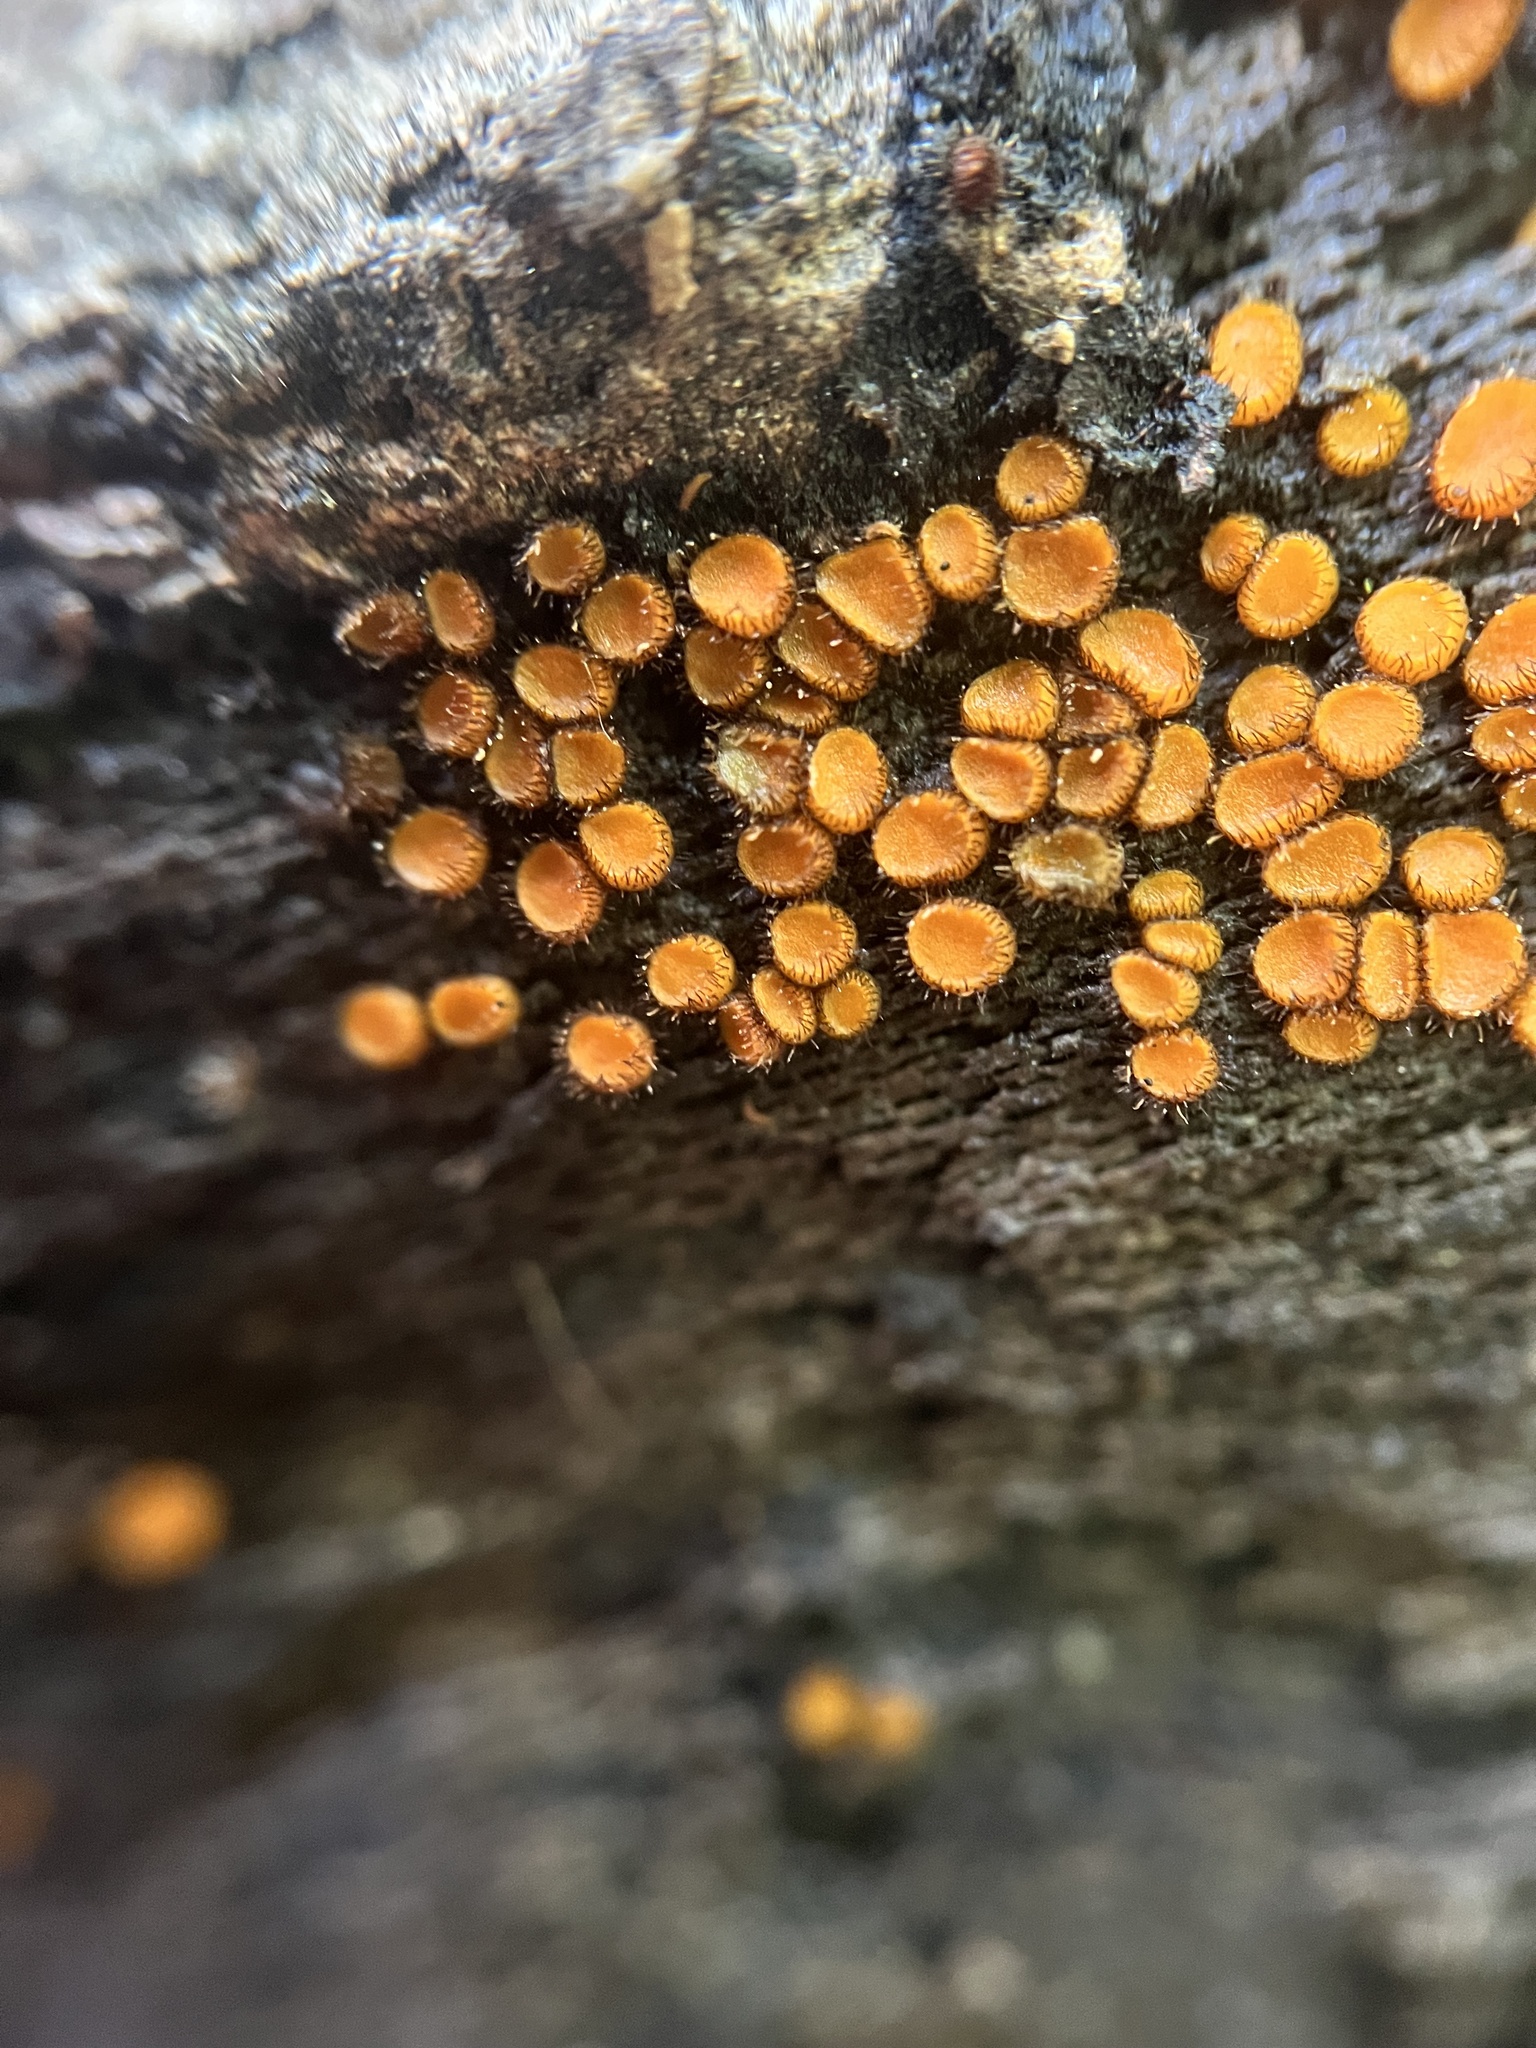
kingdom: Fungi
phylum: Ascomycota
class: Pezizomycetes
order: Pezizales
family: Pyronemataceae
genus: Scutellinia
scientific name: Scutellinia setosa
